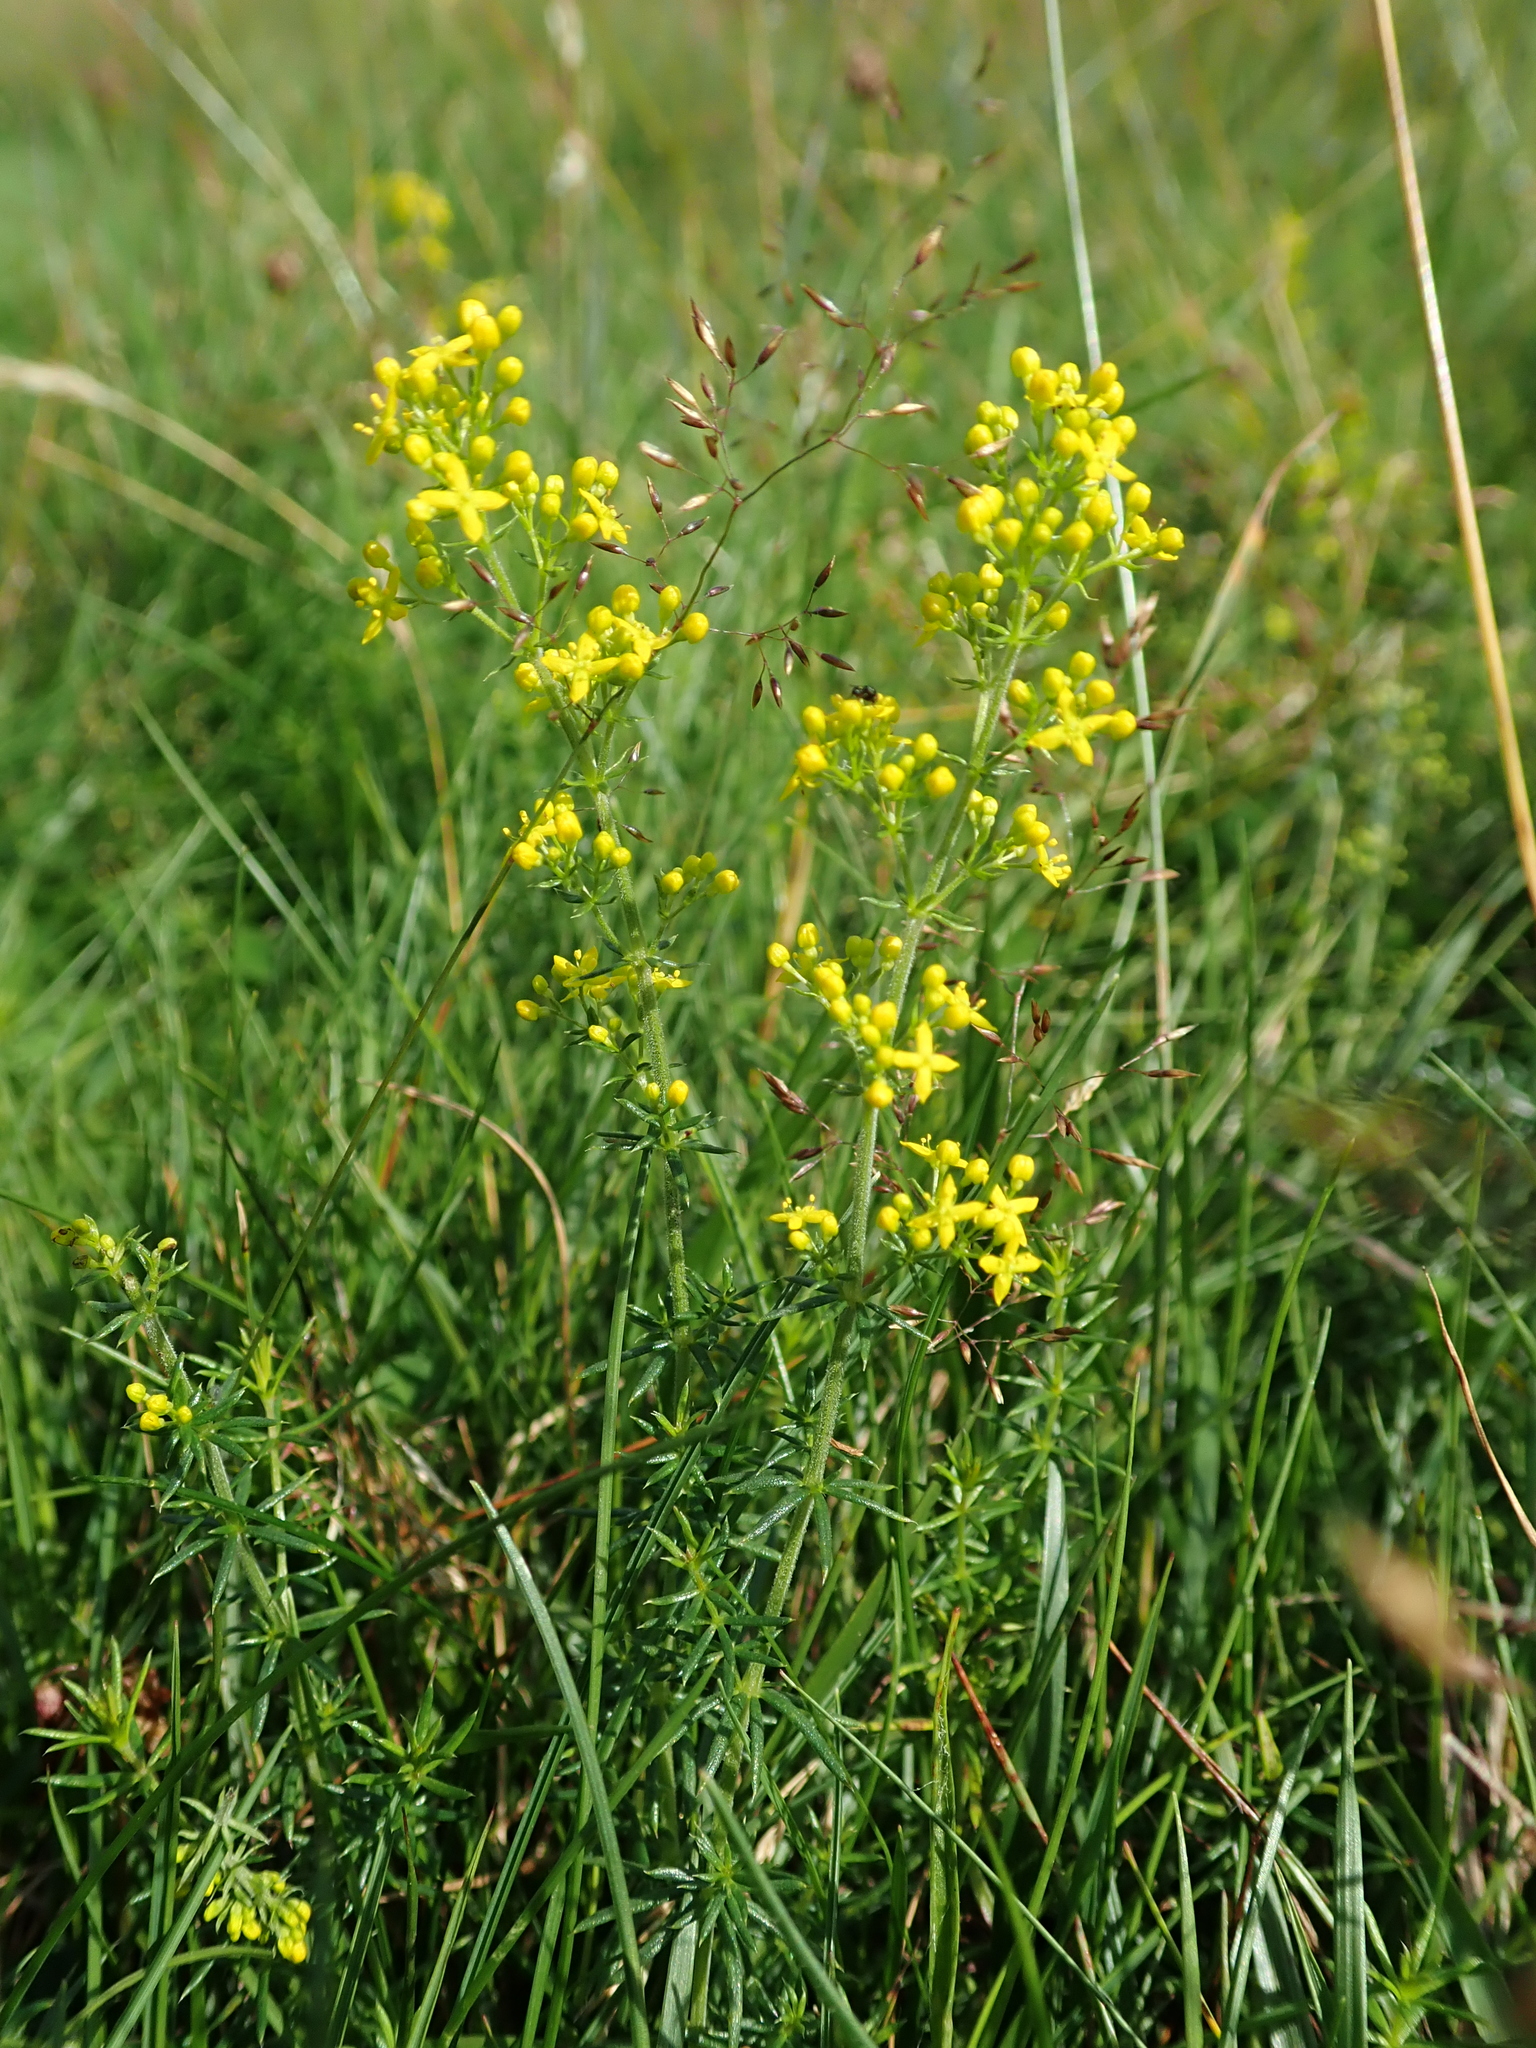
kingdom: Plantae
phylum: Tracheophyta
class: Magnoliopsida
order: Gentianales
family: Rubiaceae
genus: Galium
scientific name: Galium verum
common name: Lady's bedstraw
